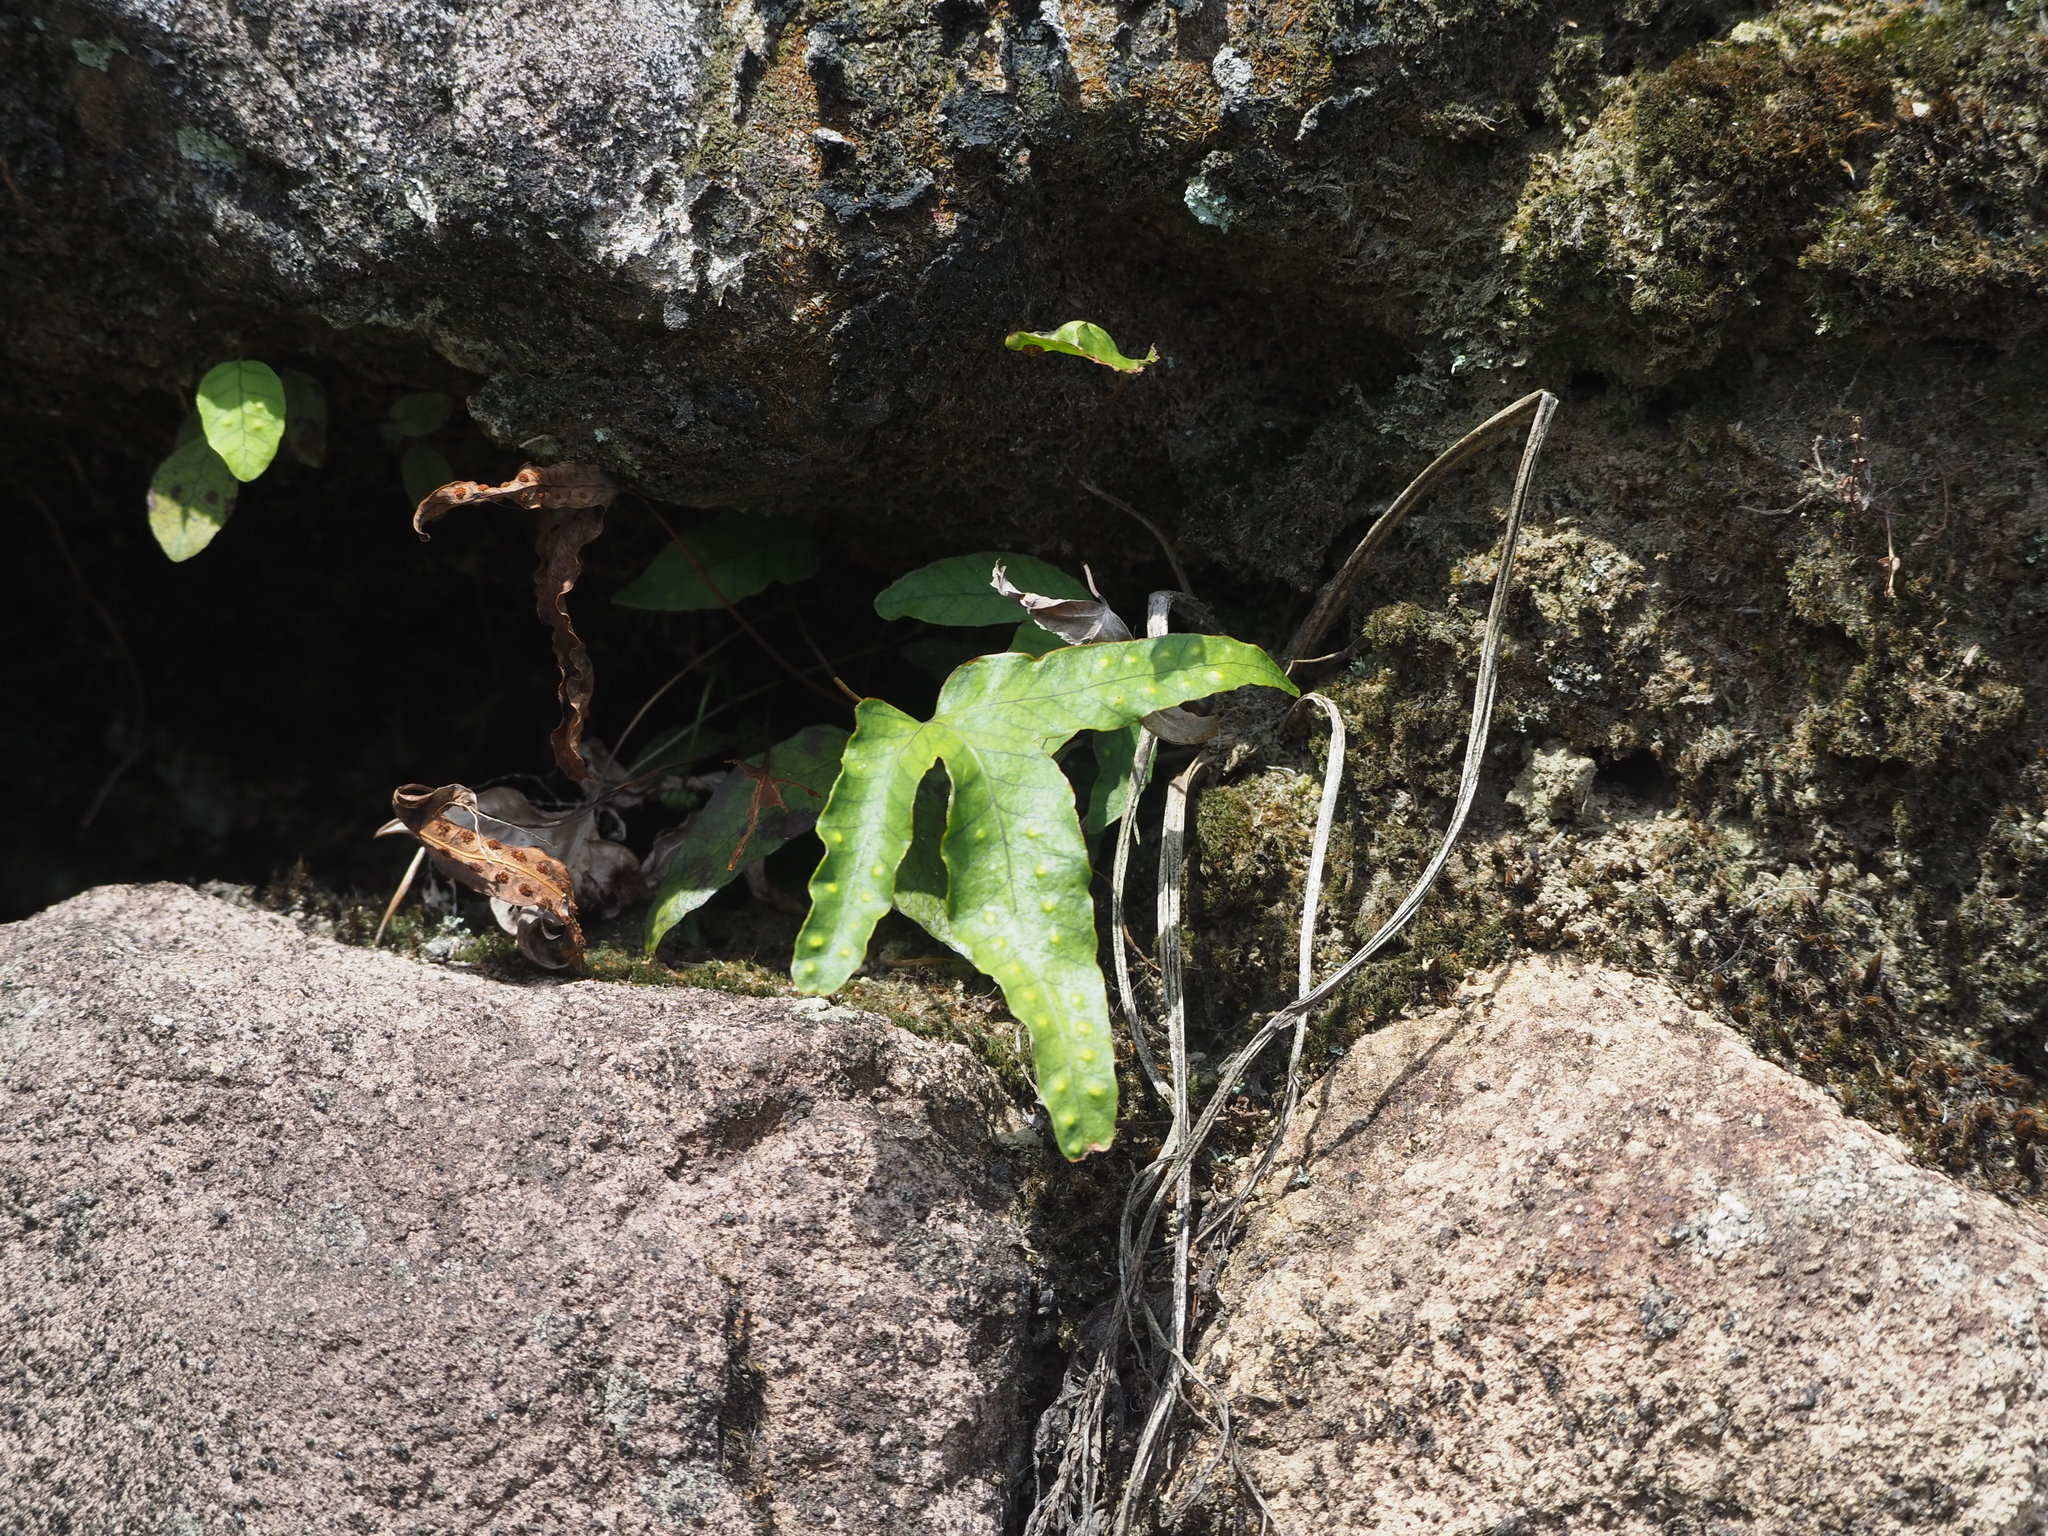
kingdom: Plantae
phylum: Tracheophyta
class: Polypodiopsida
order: Polypodiales
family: Polypodiaceae
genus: Selliguea
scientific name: Selliguea hastata
